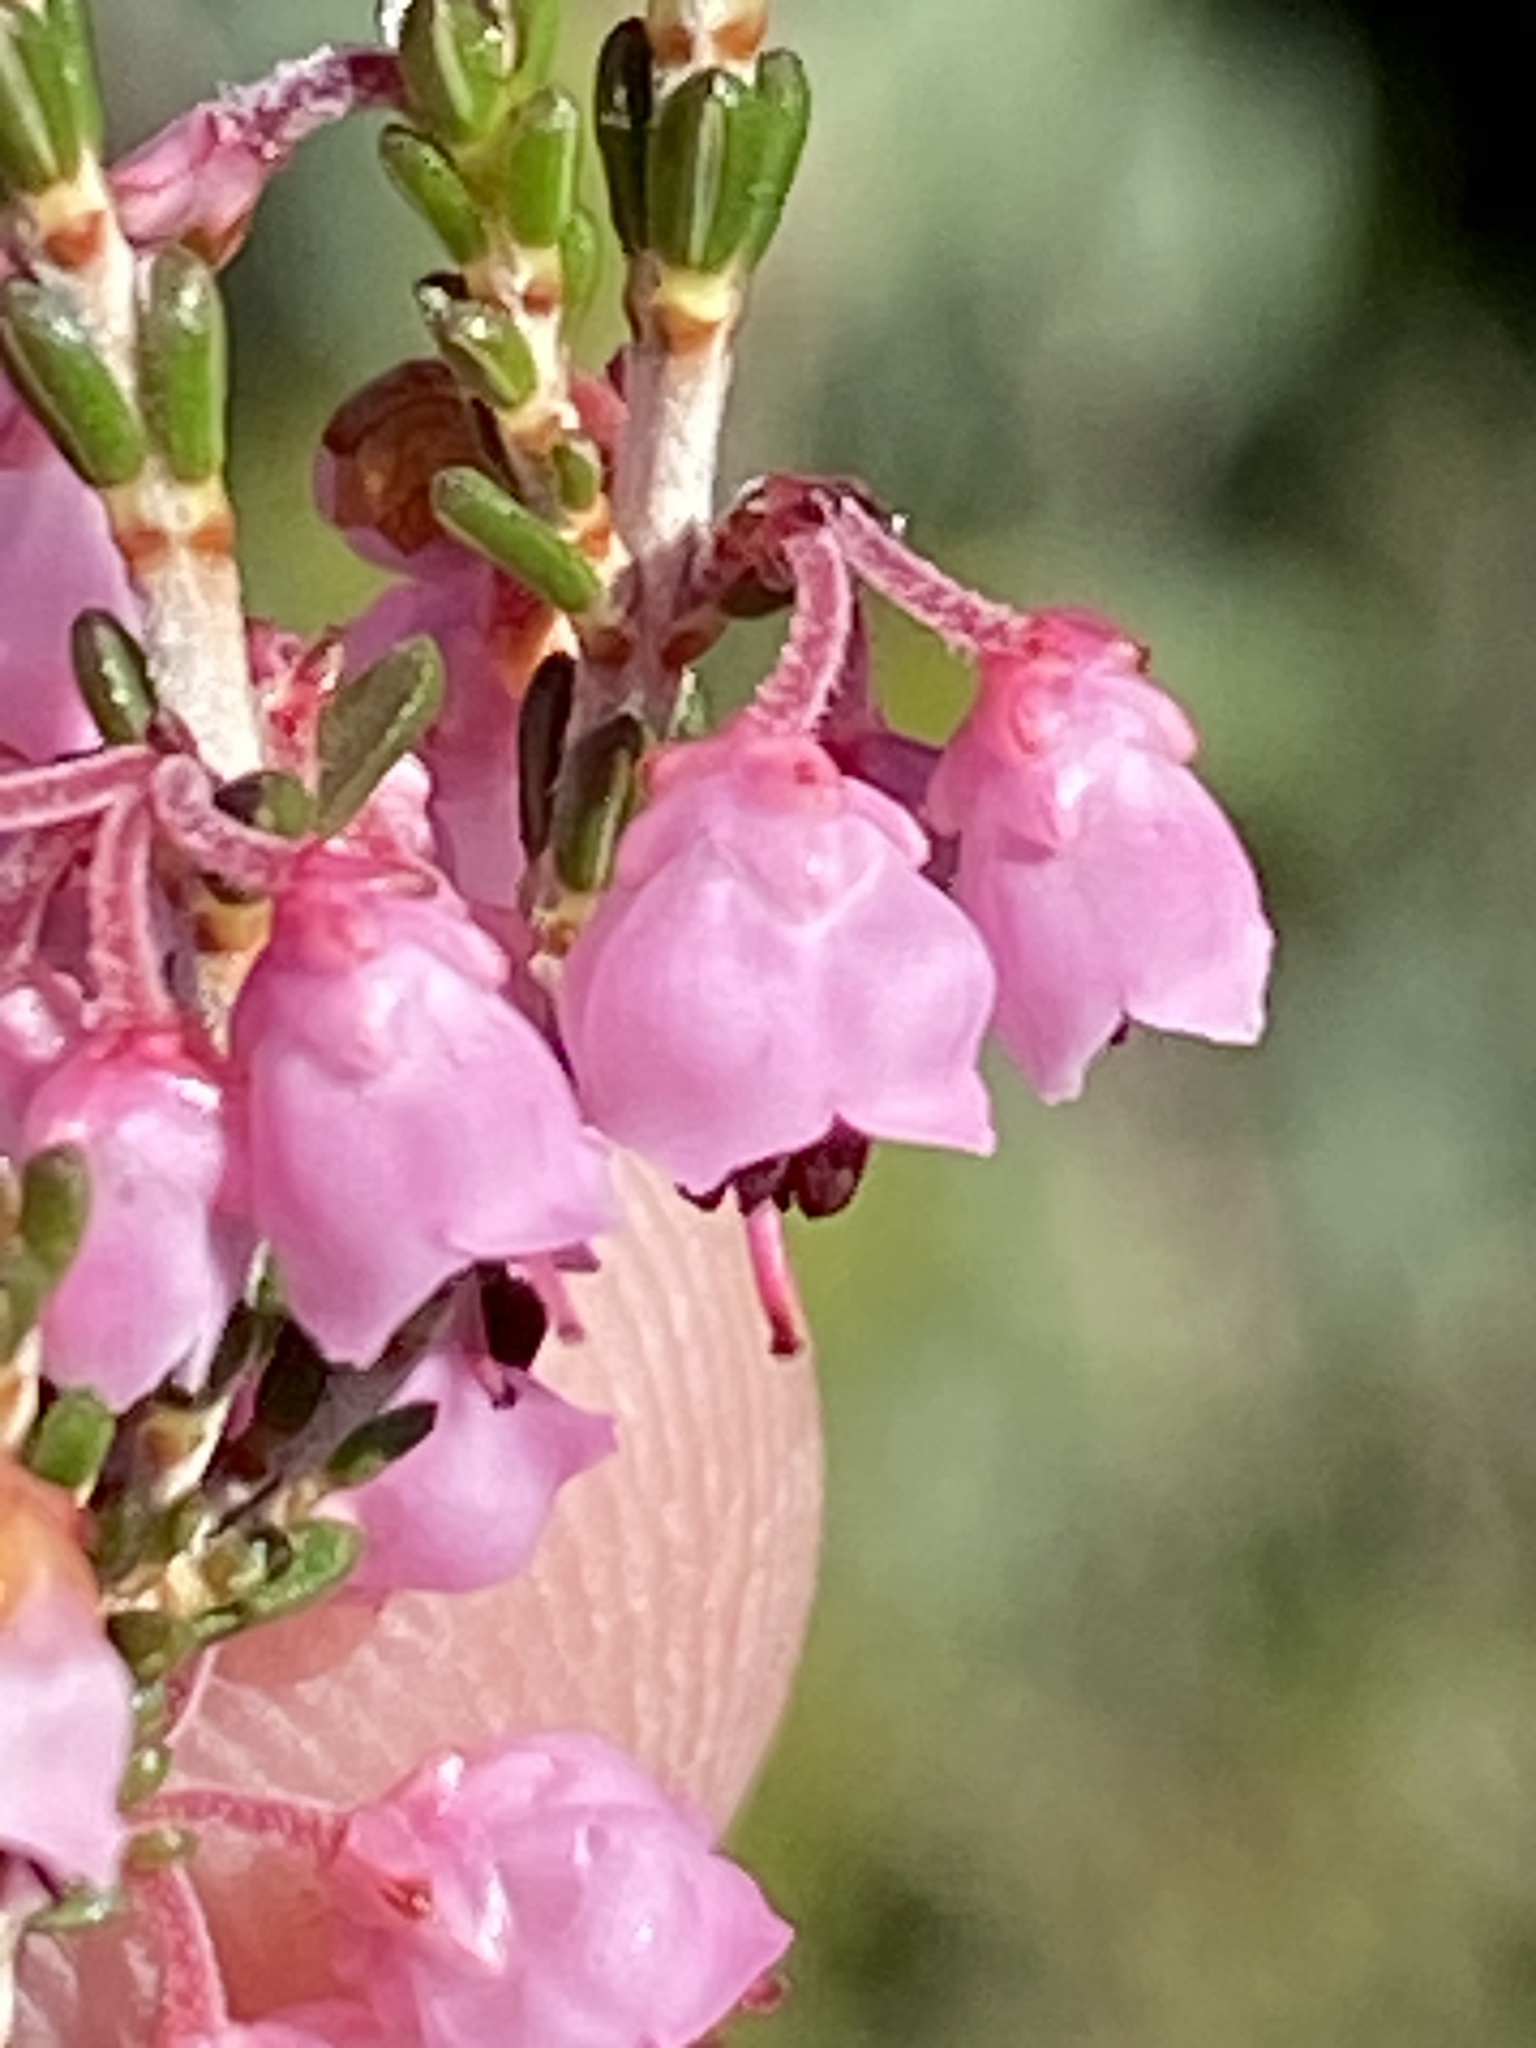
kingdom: Plantae
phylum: Tracheophyta
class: Magnoliopsida
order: Ericales
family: Ericaceae
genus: Erica
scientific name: Erica umbelliflora
